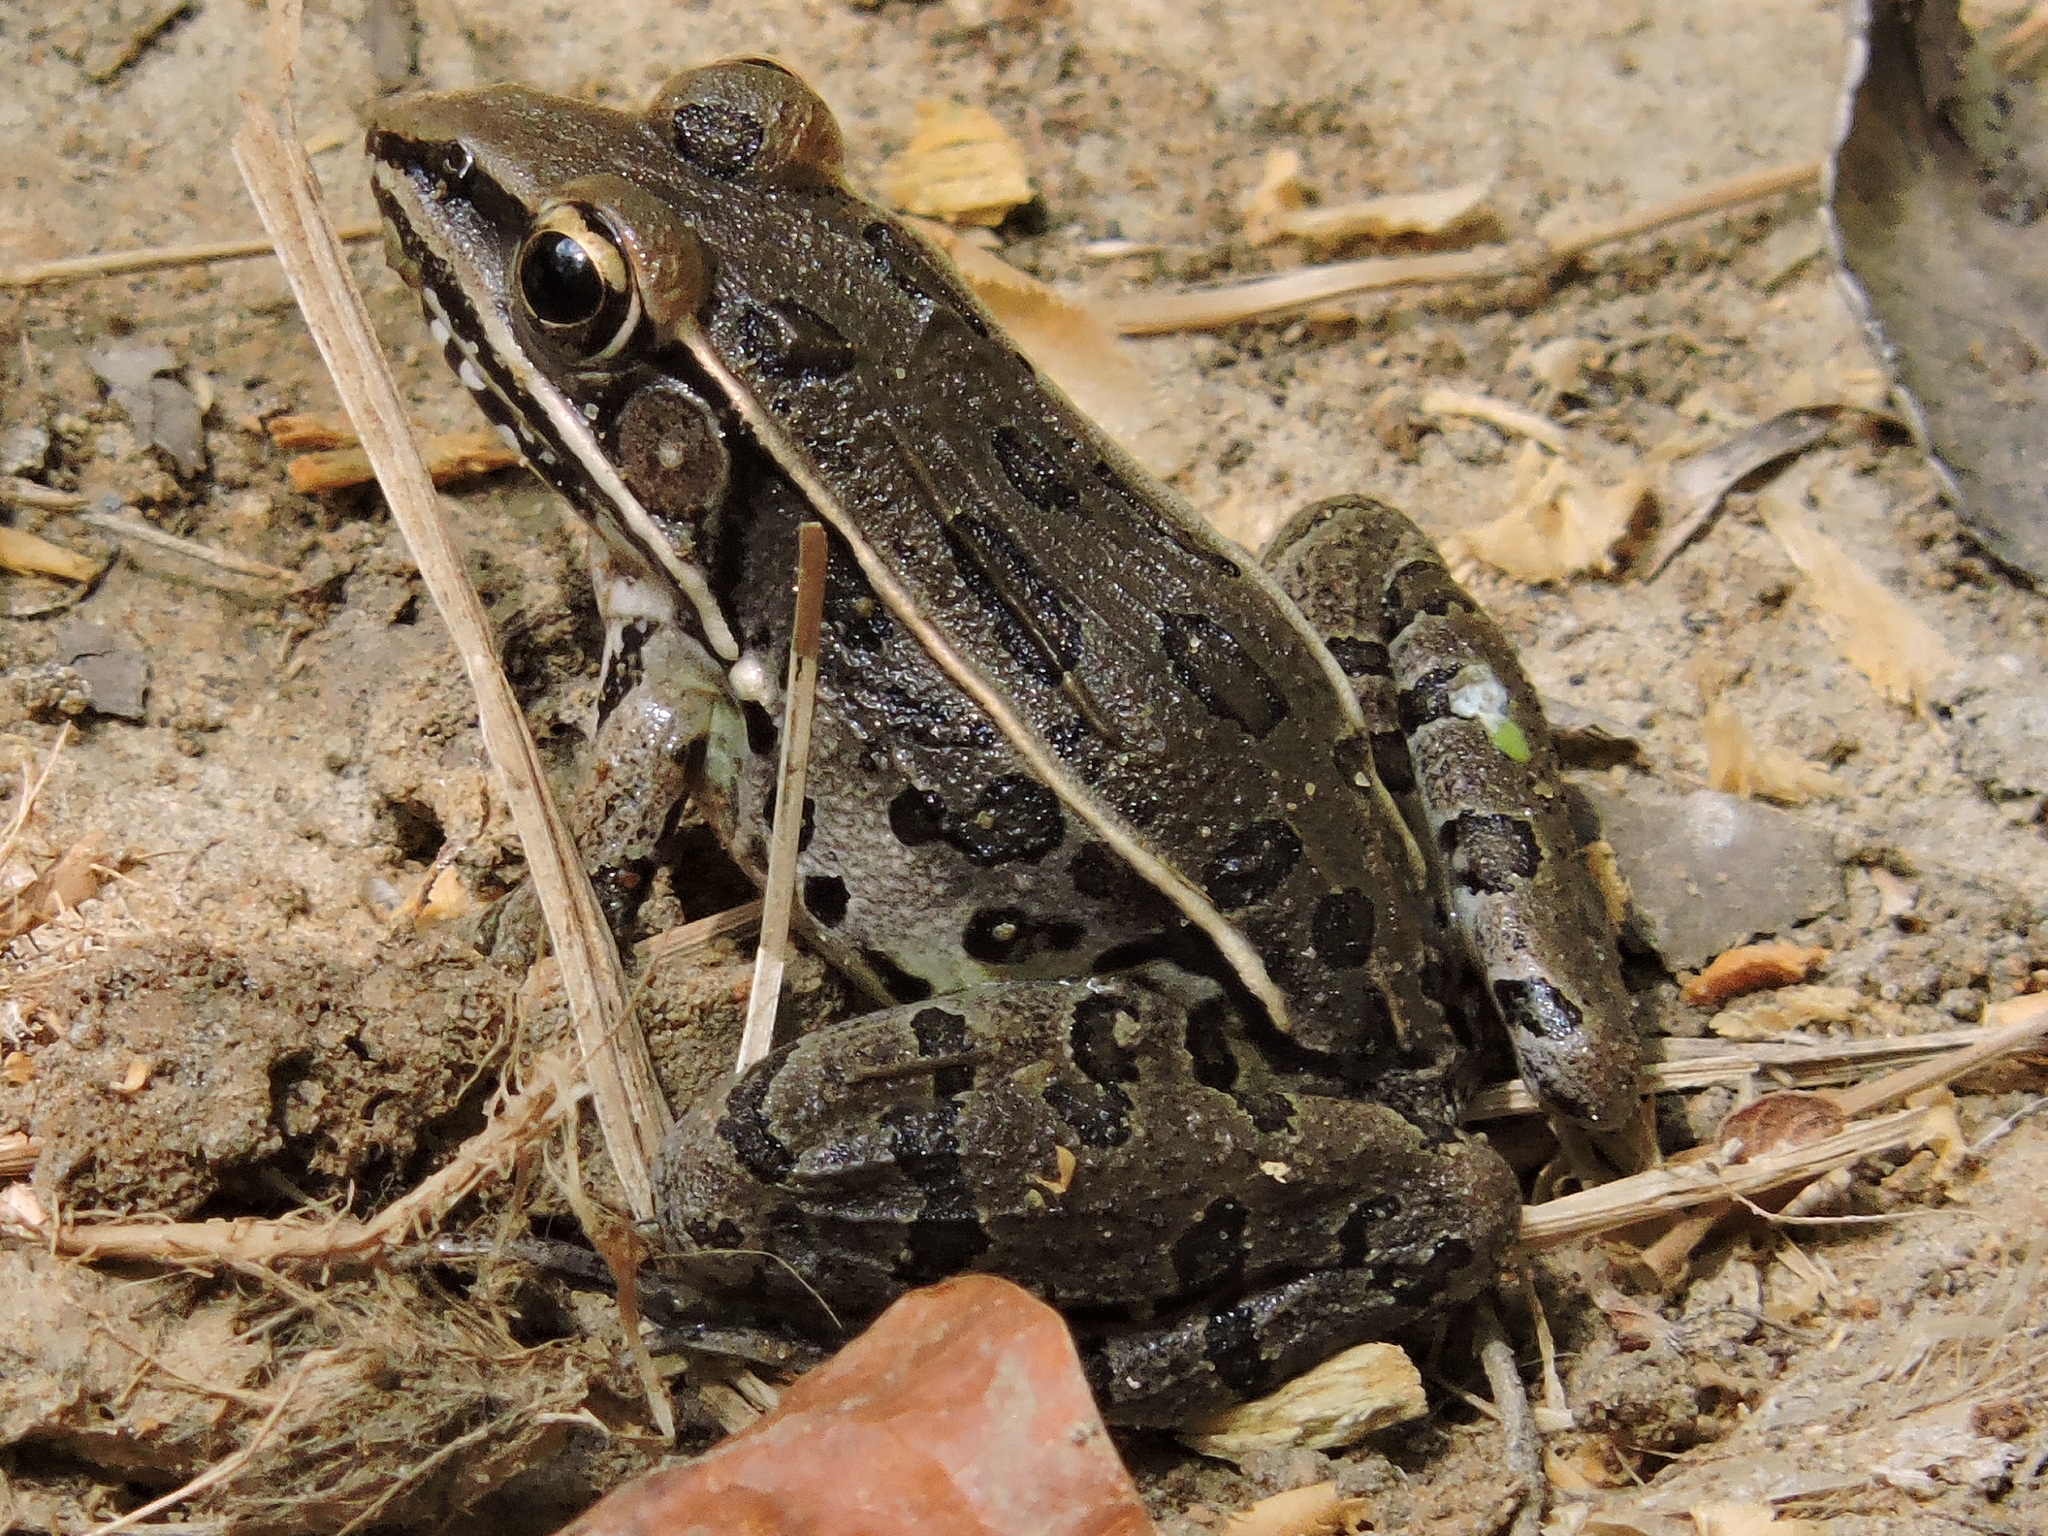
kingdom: Animalia
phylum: Chordata
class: Amphibia
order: Anura
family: Ranidae
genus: Lithobates
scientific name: Lithobates sphenocephalus
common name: Southern leopard frog
